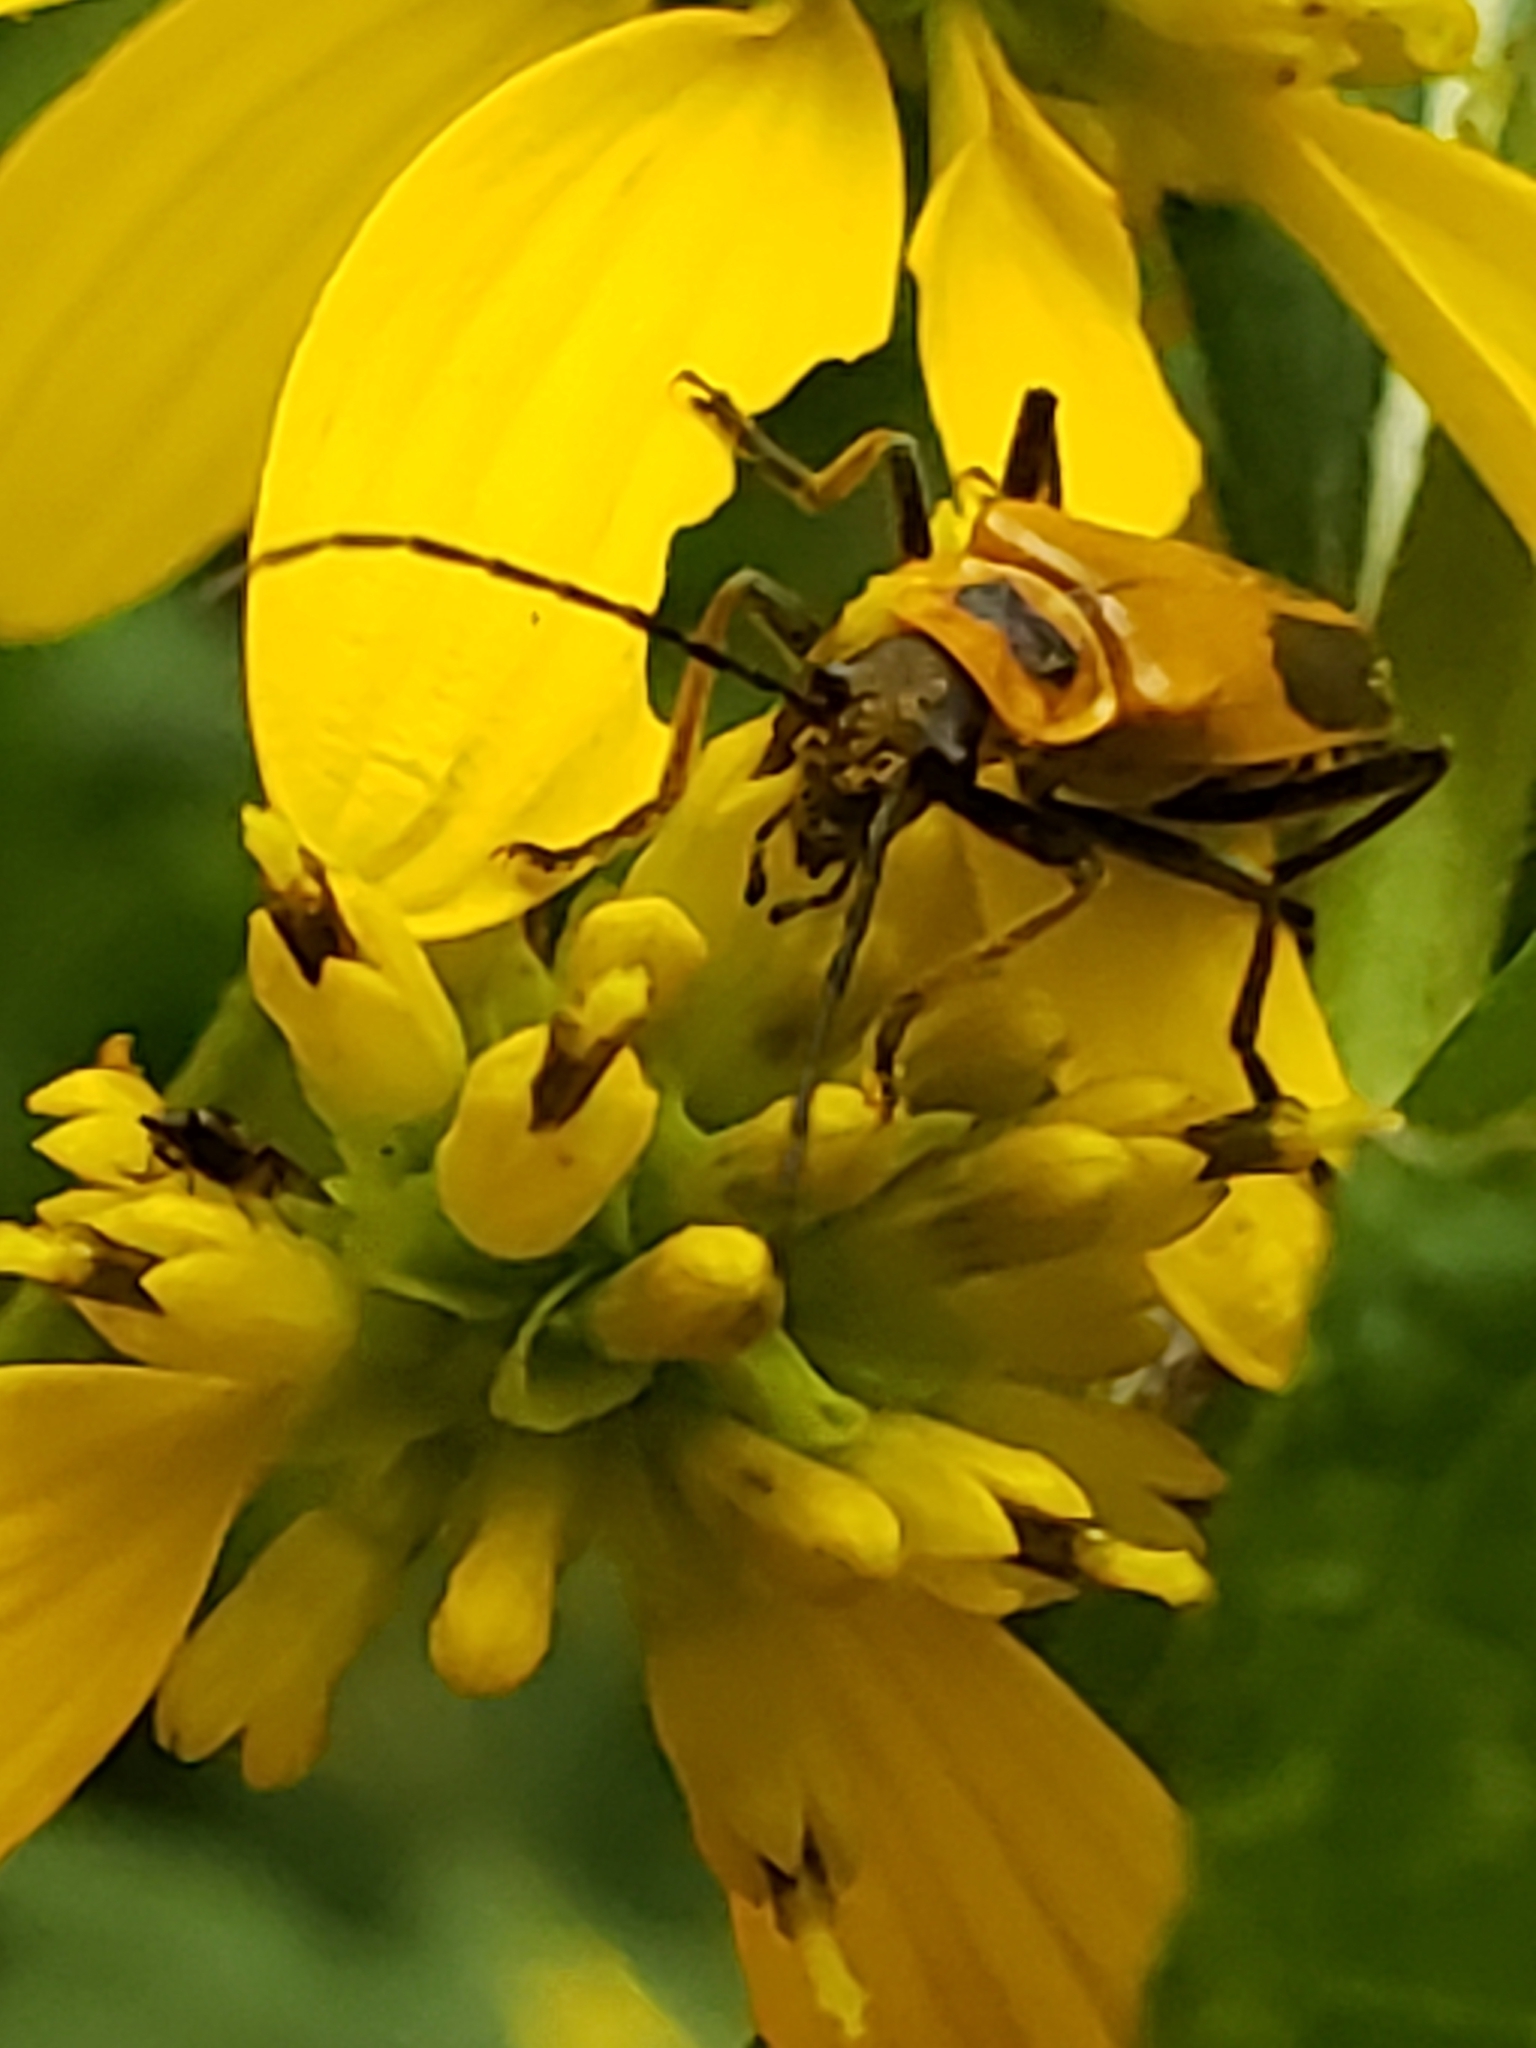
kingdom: Animalia
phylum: Arthropoda
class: Insecta
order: Coleoptera
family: Cantharidae
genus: Chauliognathus
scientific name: Chauliognathus pensylvanicus
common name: Goldenrod soldier beetle
